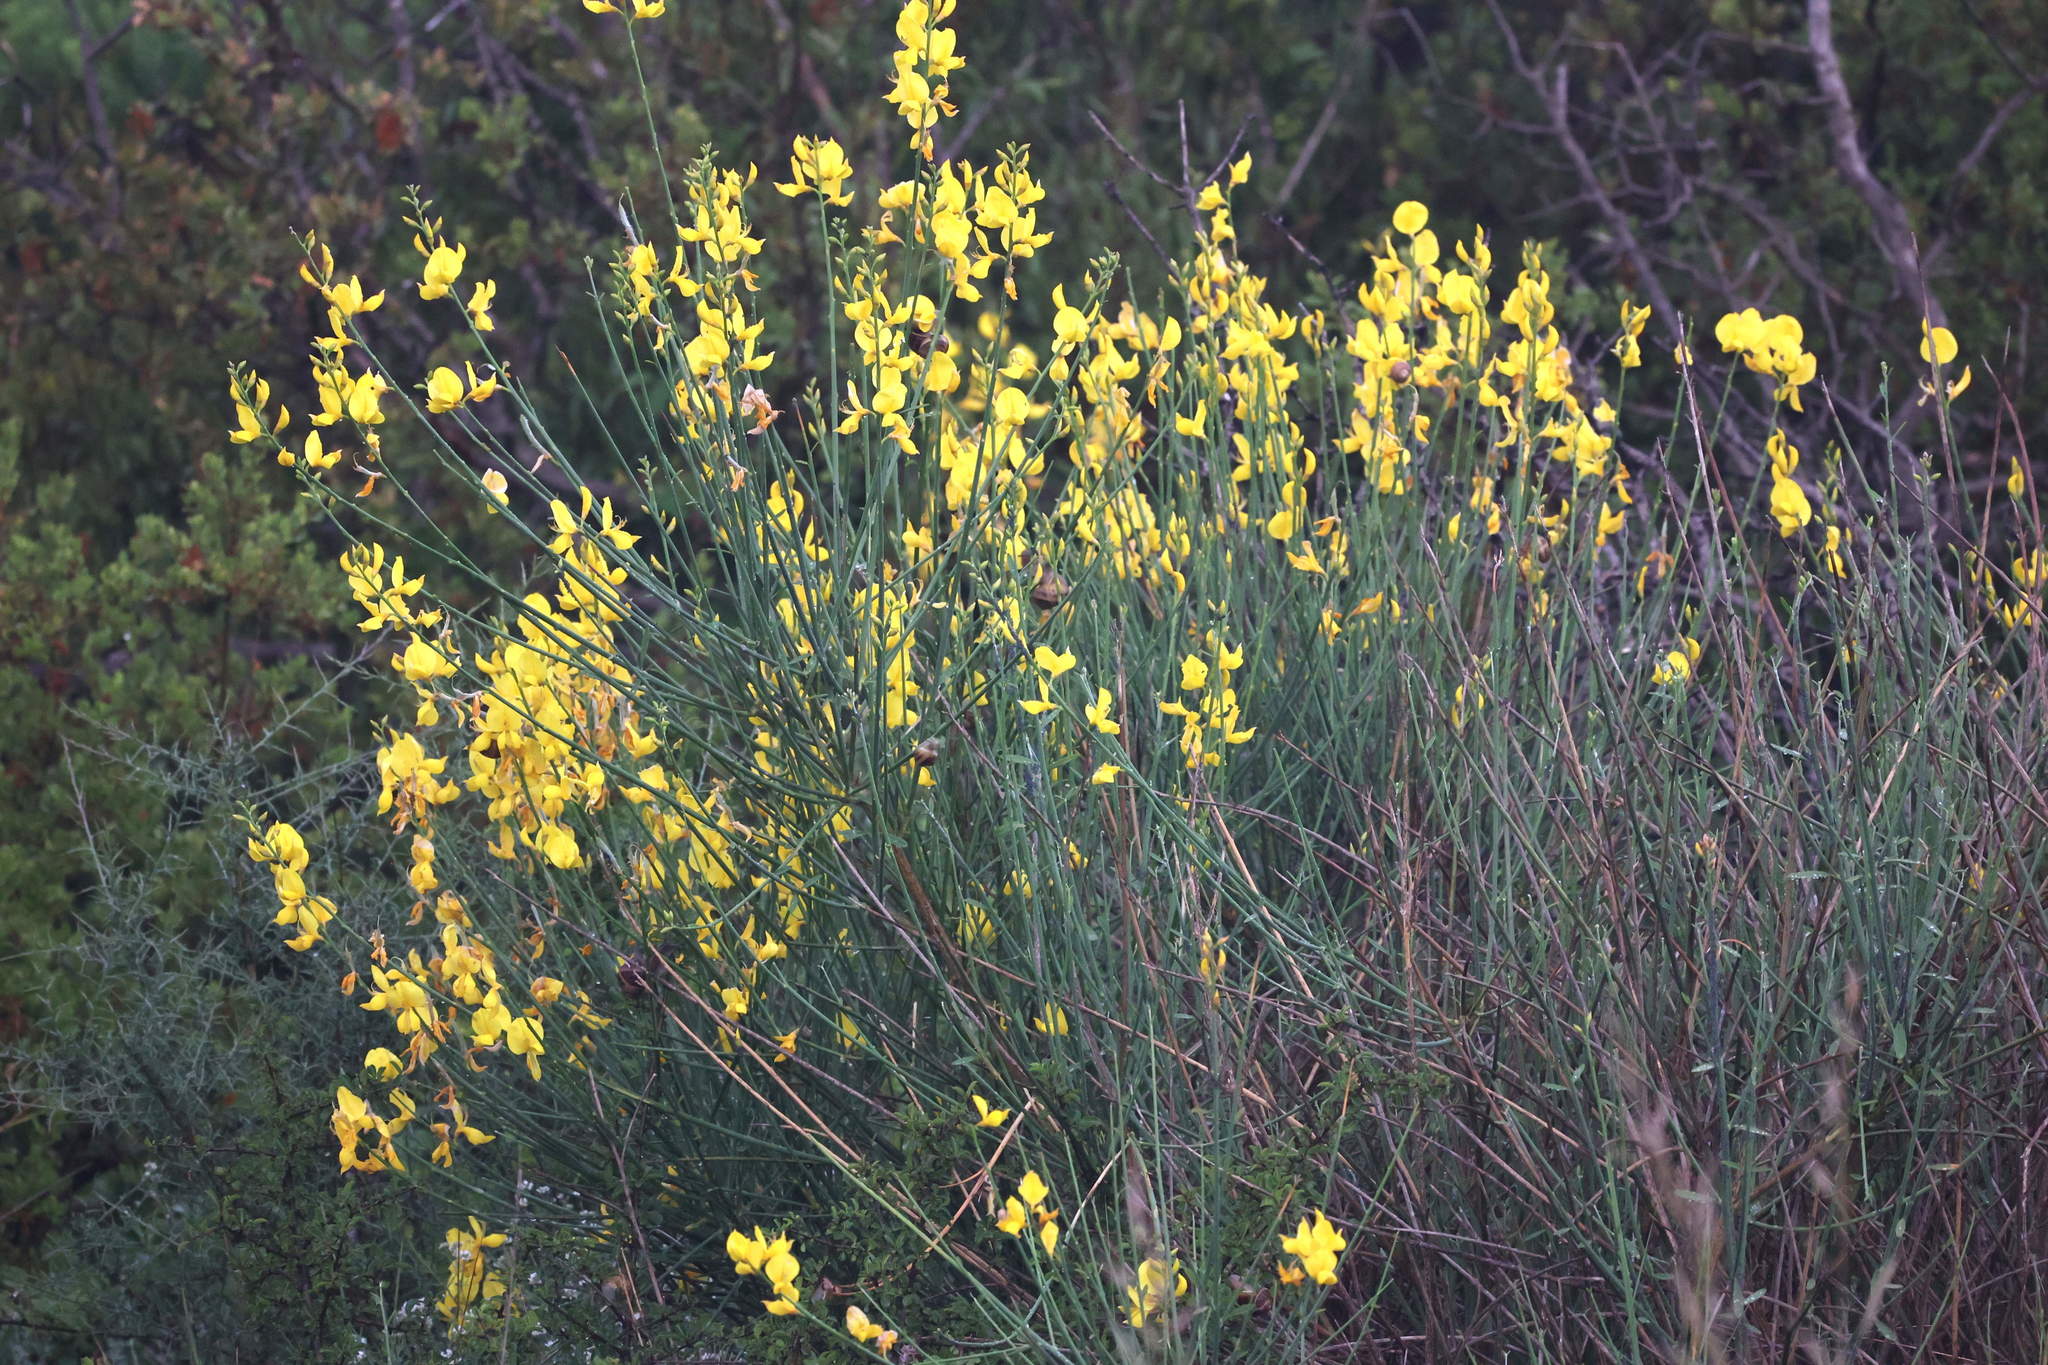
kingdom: Plantae
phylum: Tracheophyta
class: Magnoliopsida
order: Fabales
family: Fabaceae
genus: Spartium
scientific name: Spartium junceum
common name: Spanish broom
